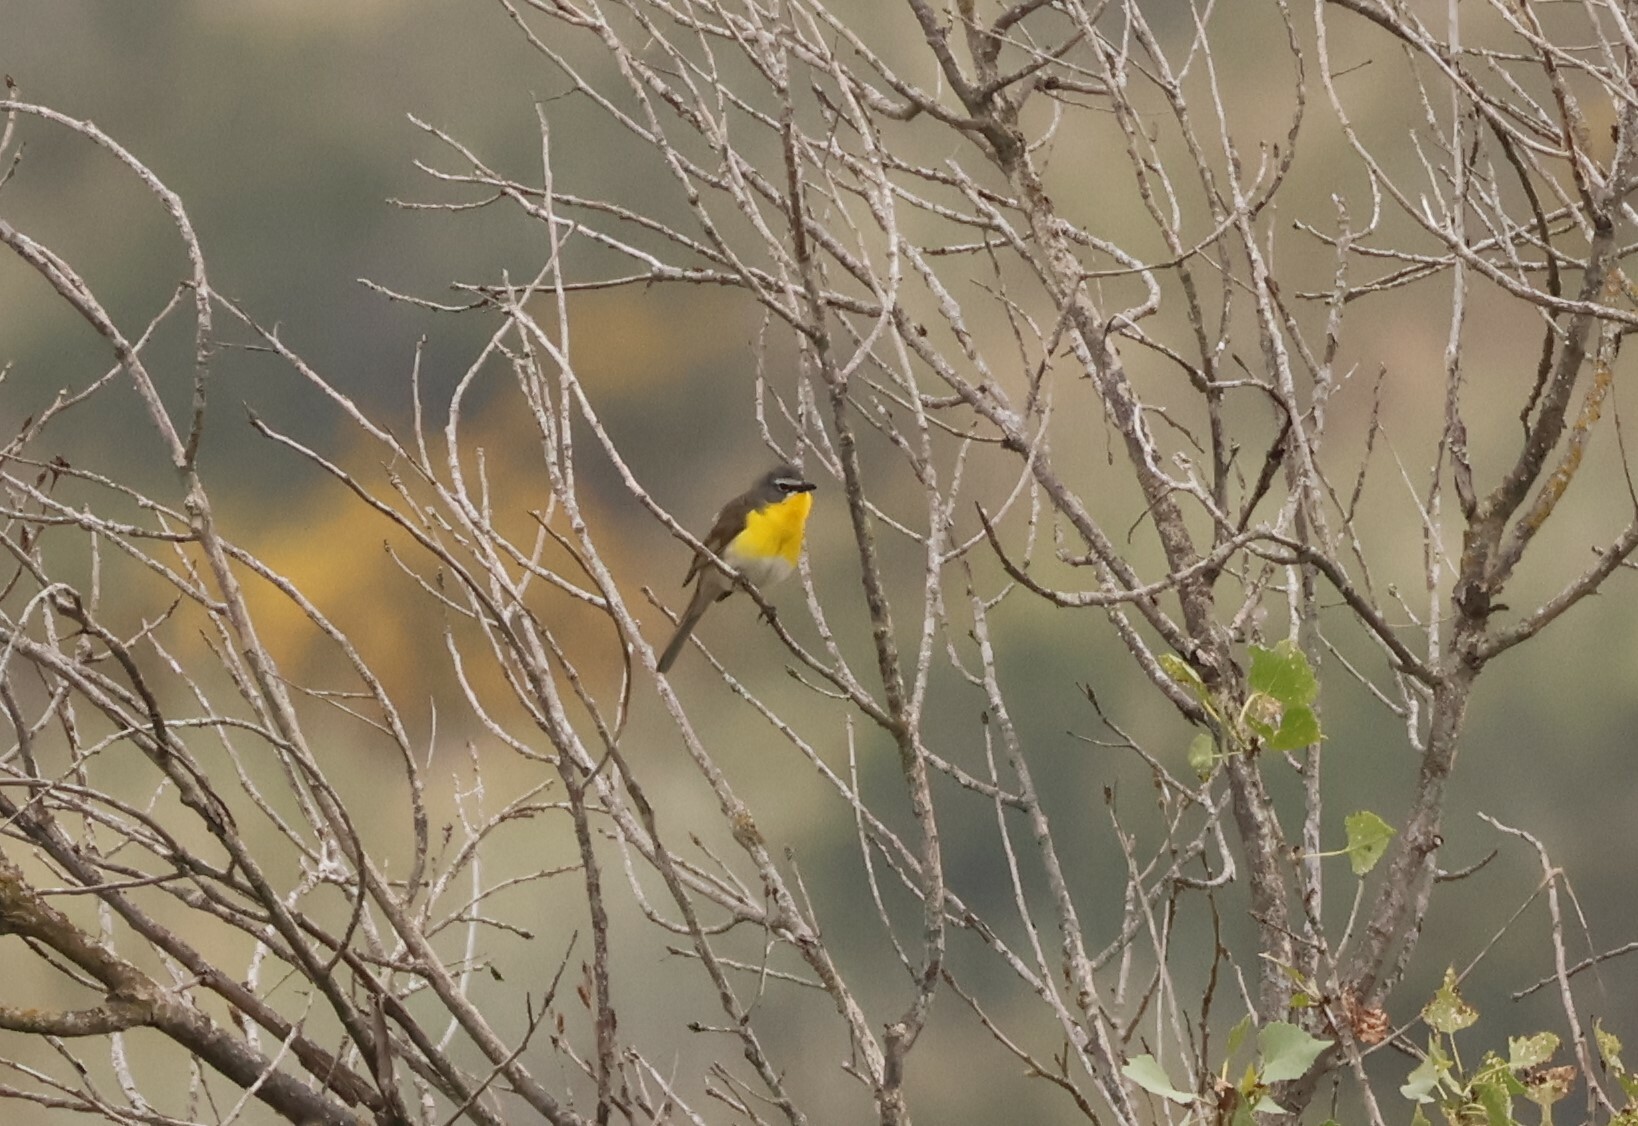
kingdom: Animalia
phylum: Chordata
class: Aves
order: Passeriformes
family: Parulidae
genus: Icteria
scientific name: Icteria virens
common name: Yellow-breasted chat
